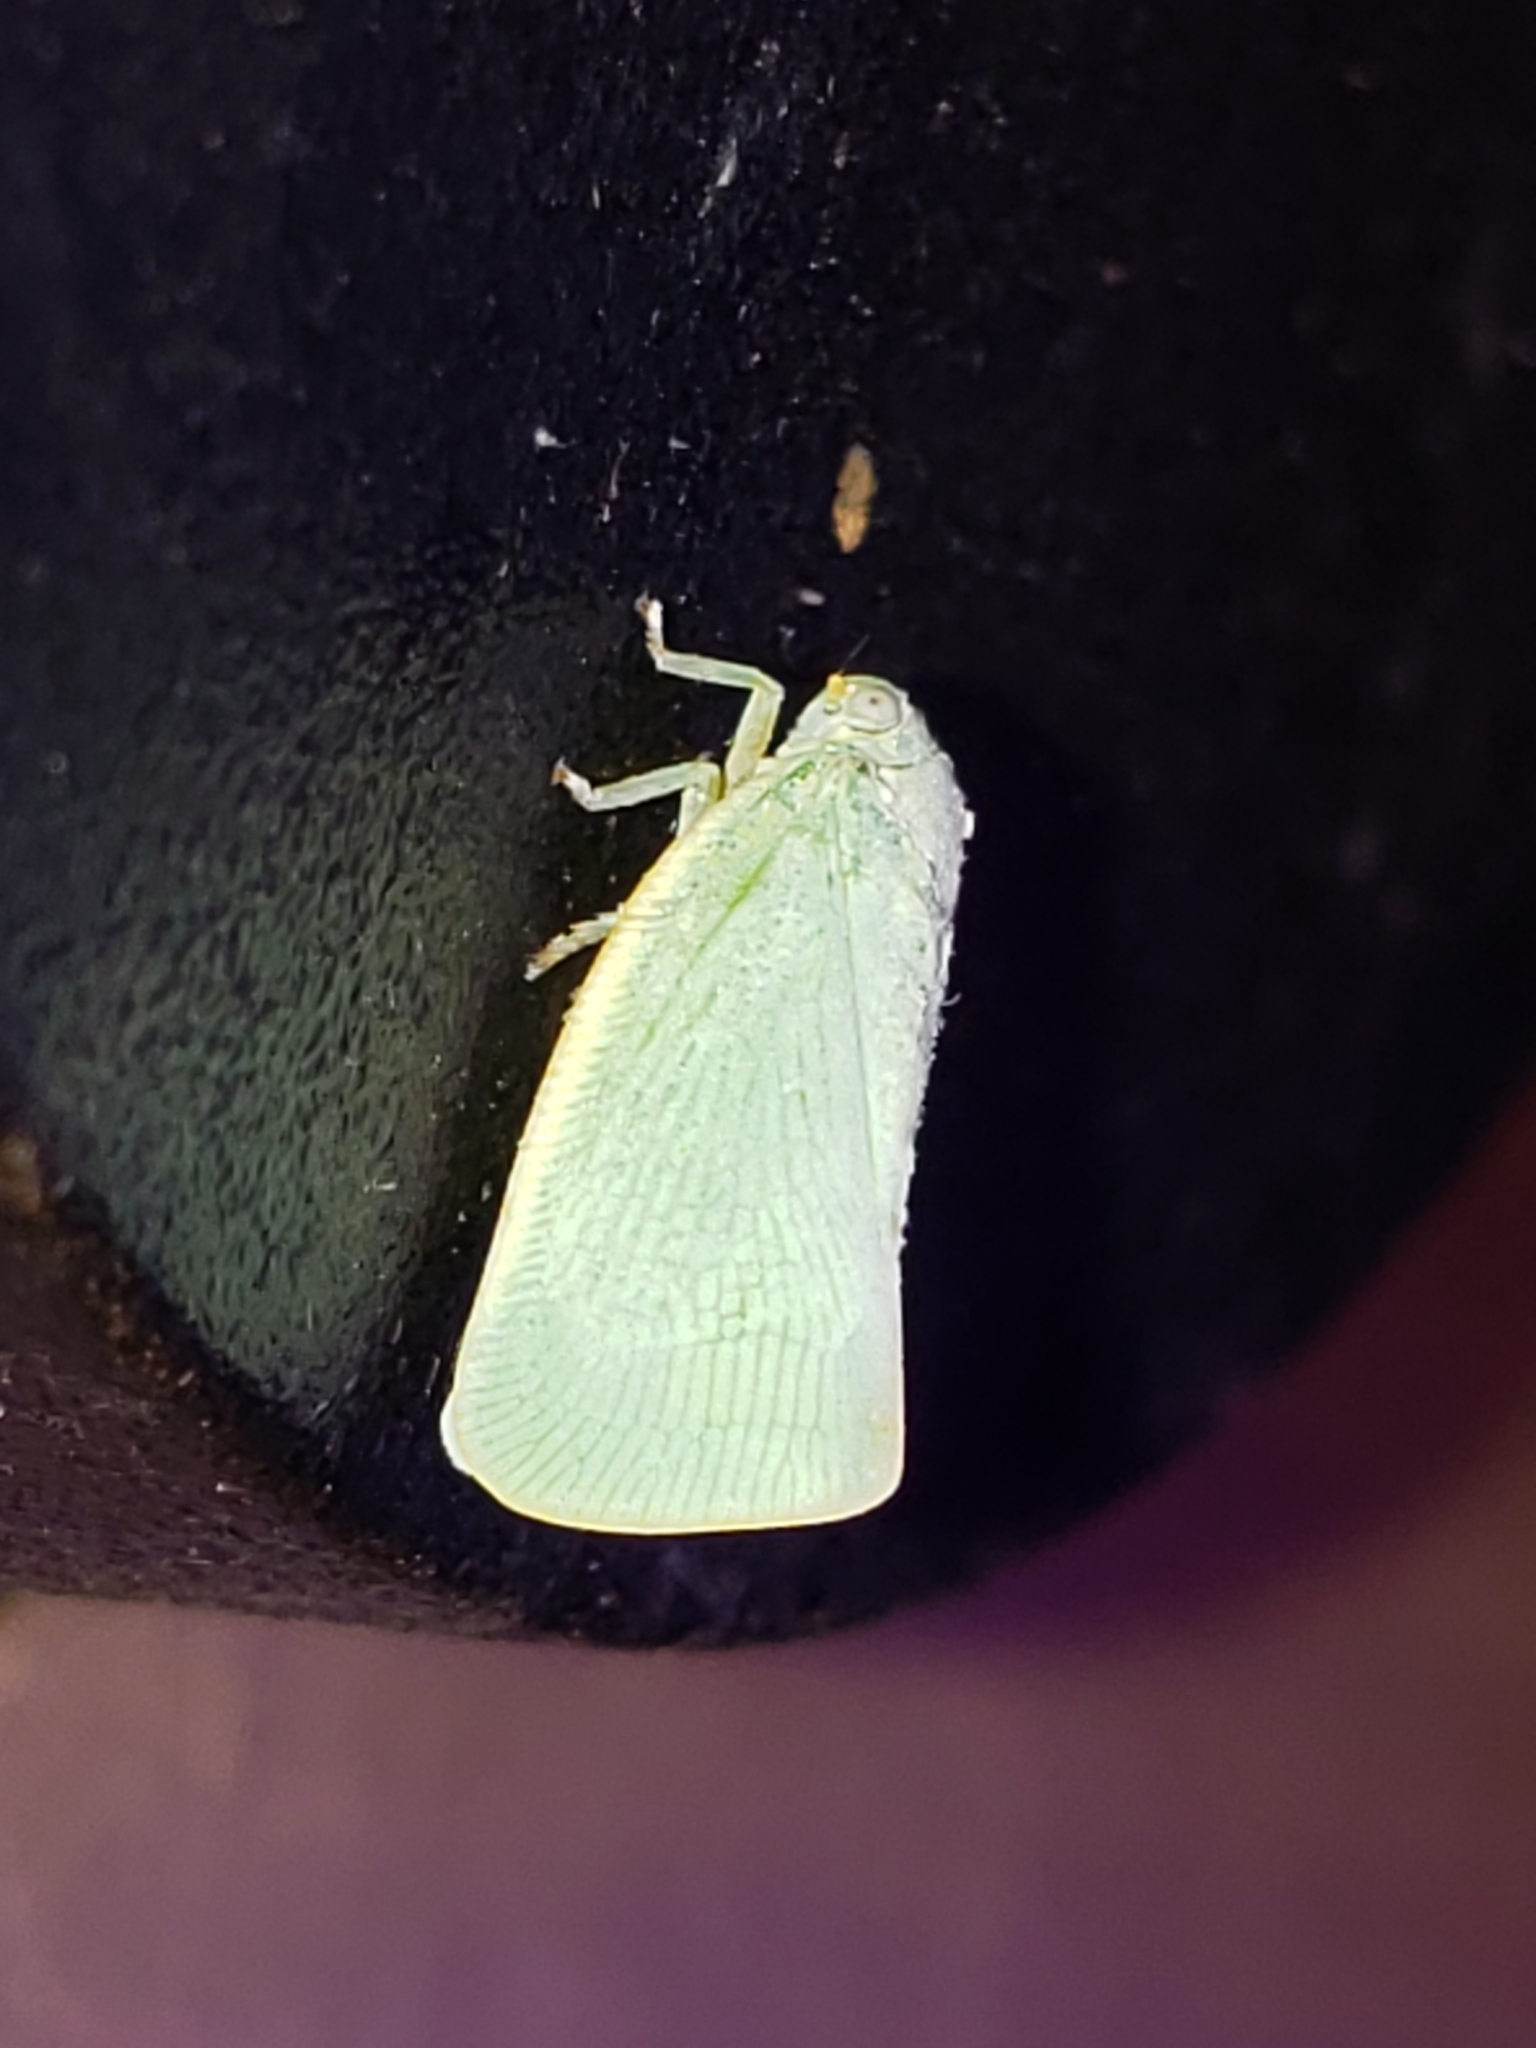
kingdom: Animalia
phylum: Arthropoda
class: Insecta
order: Hemiptera
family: Flatidae
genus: Flatormenis
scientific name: Flatormenis proxima
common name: Northern flatid planthopper
